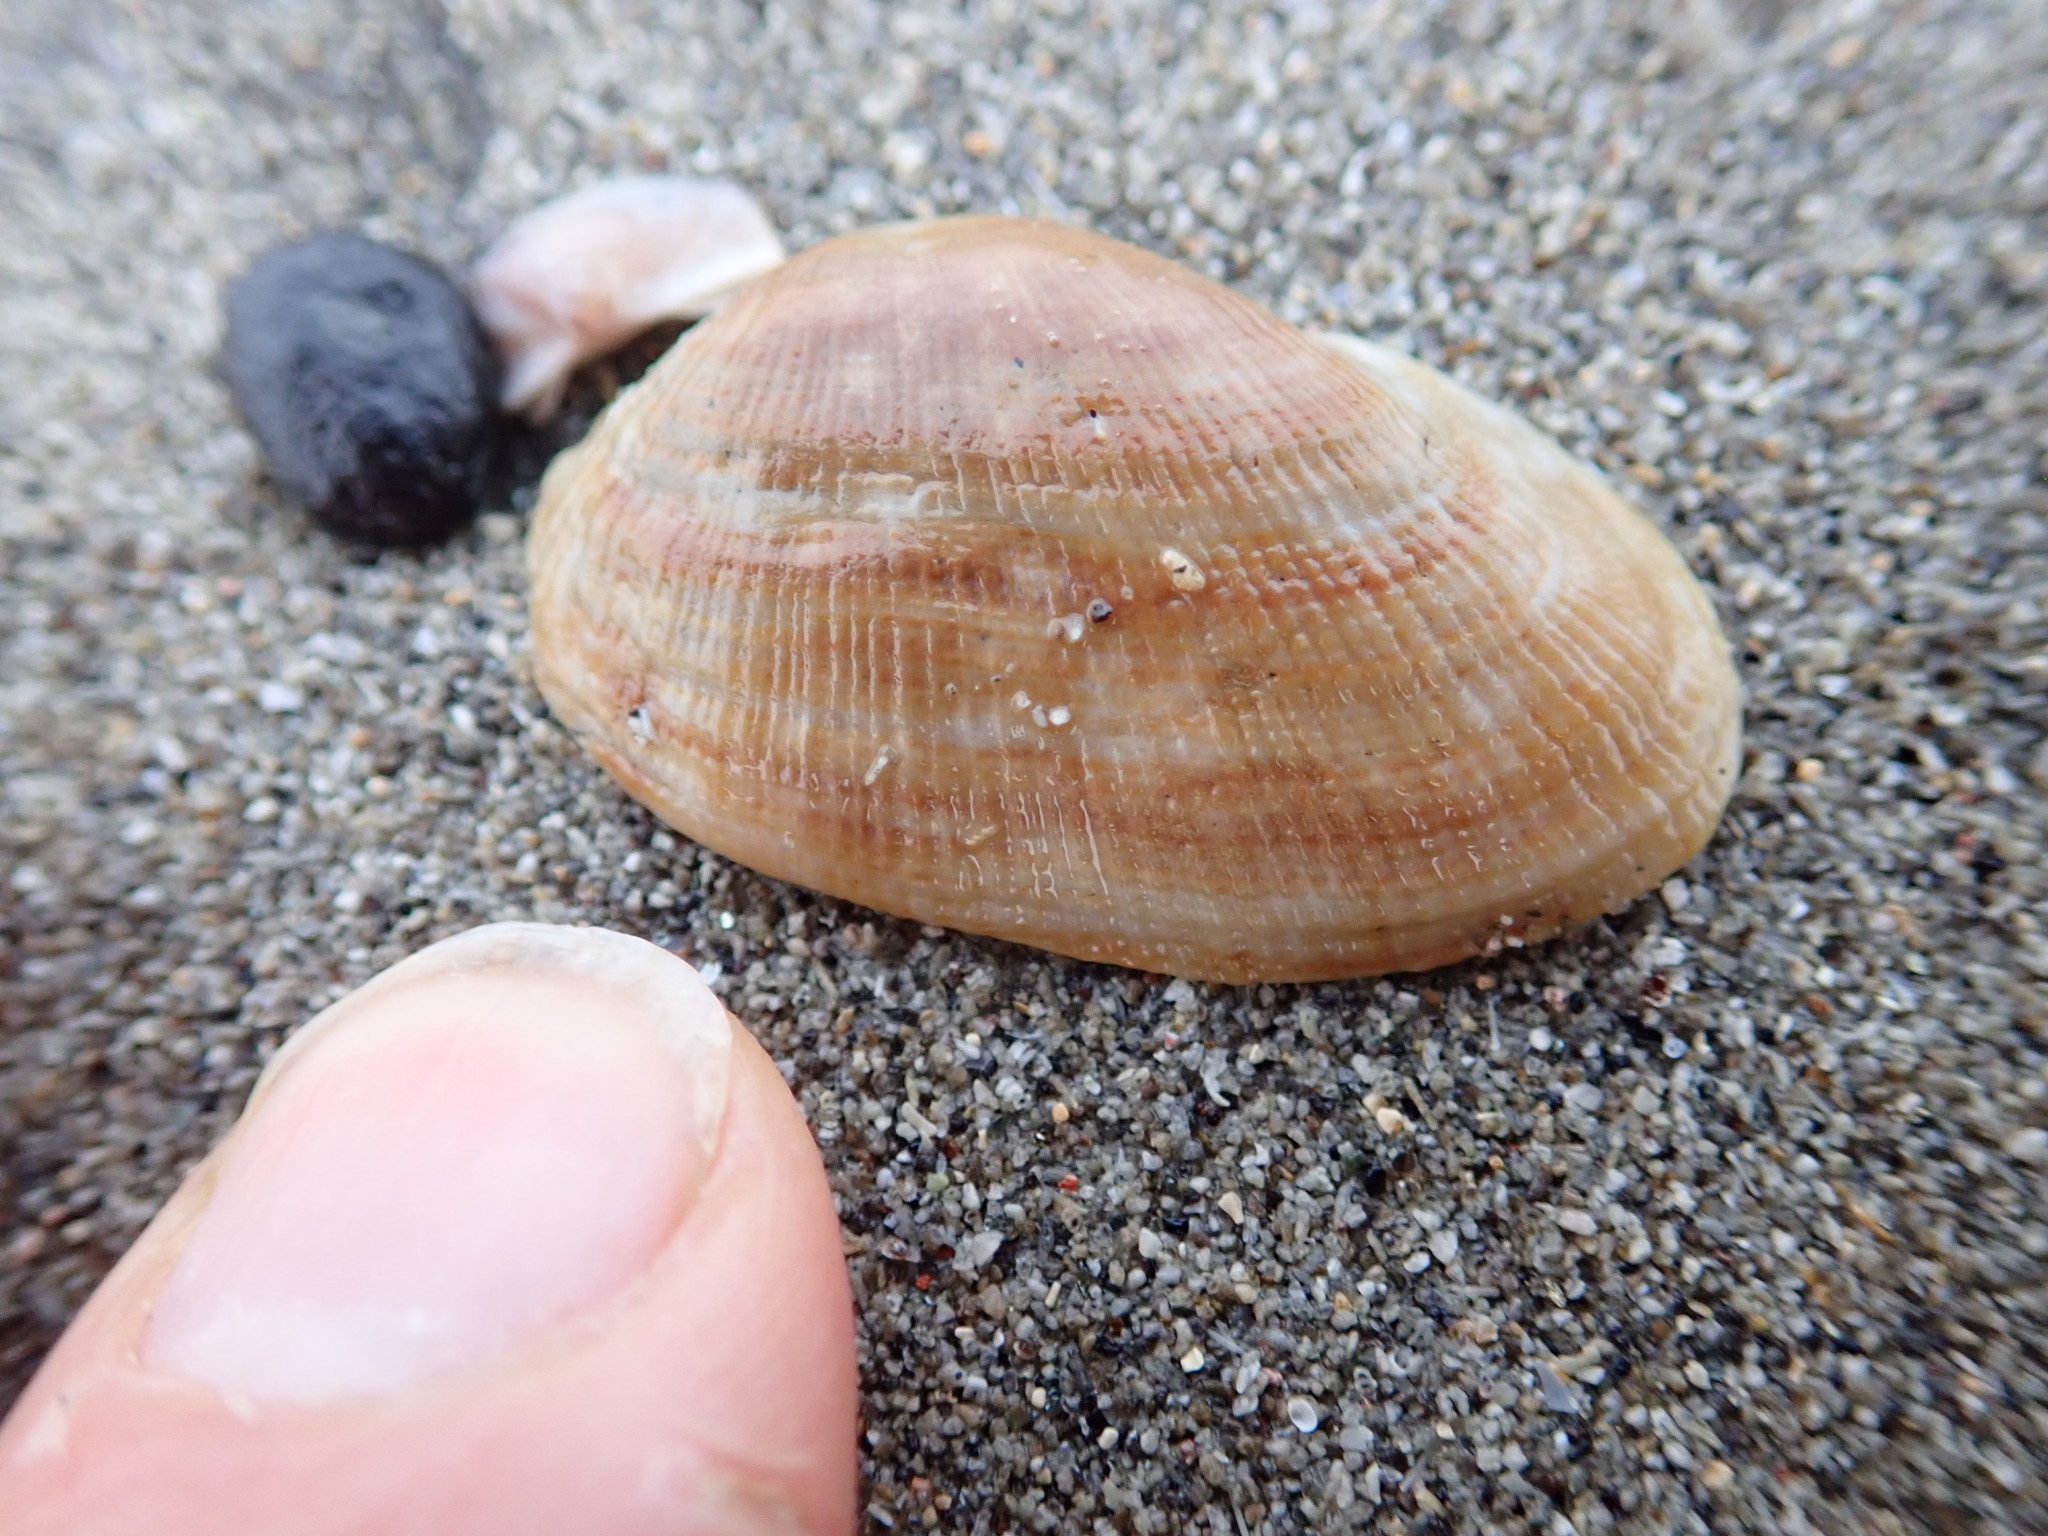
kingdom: Animalia
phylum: Mollusca
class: Bivalvia
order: Arcida
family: Arcidae
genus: Barbatia
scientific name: Barbatia novaezealandiae
